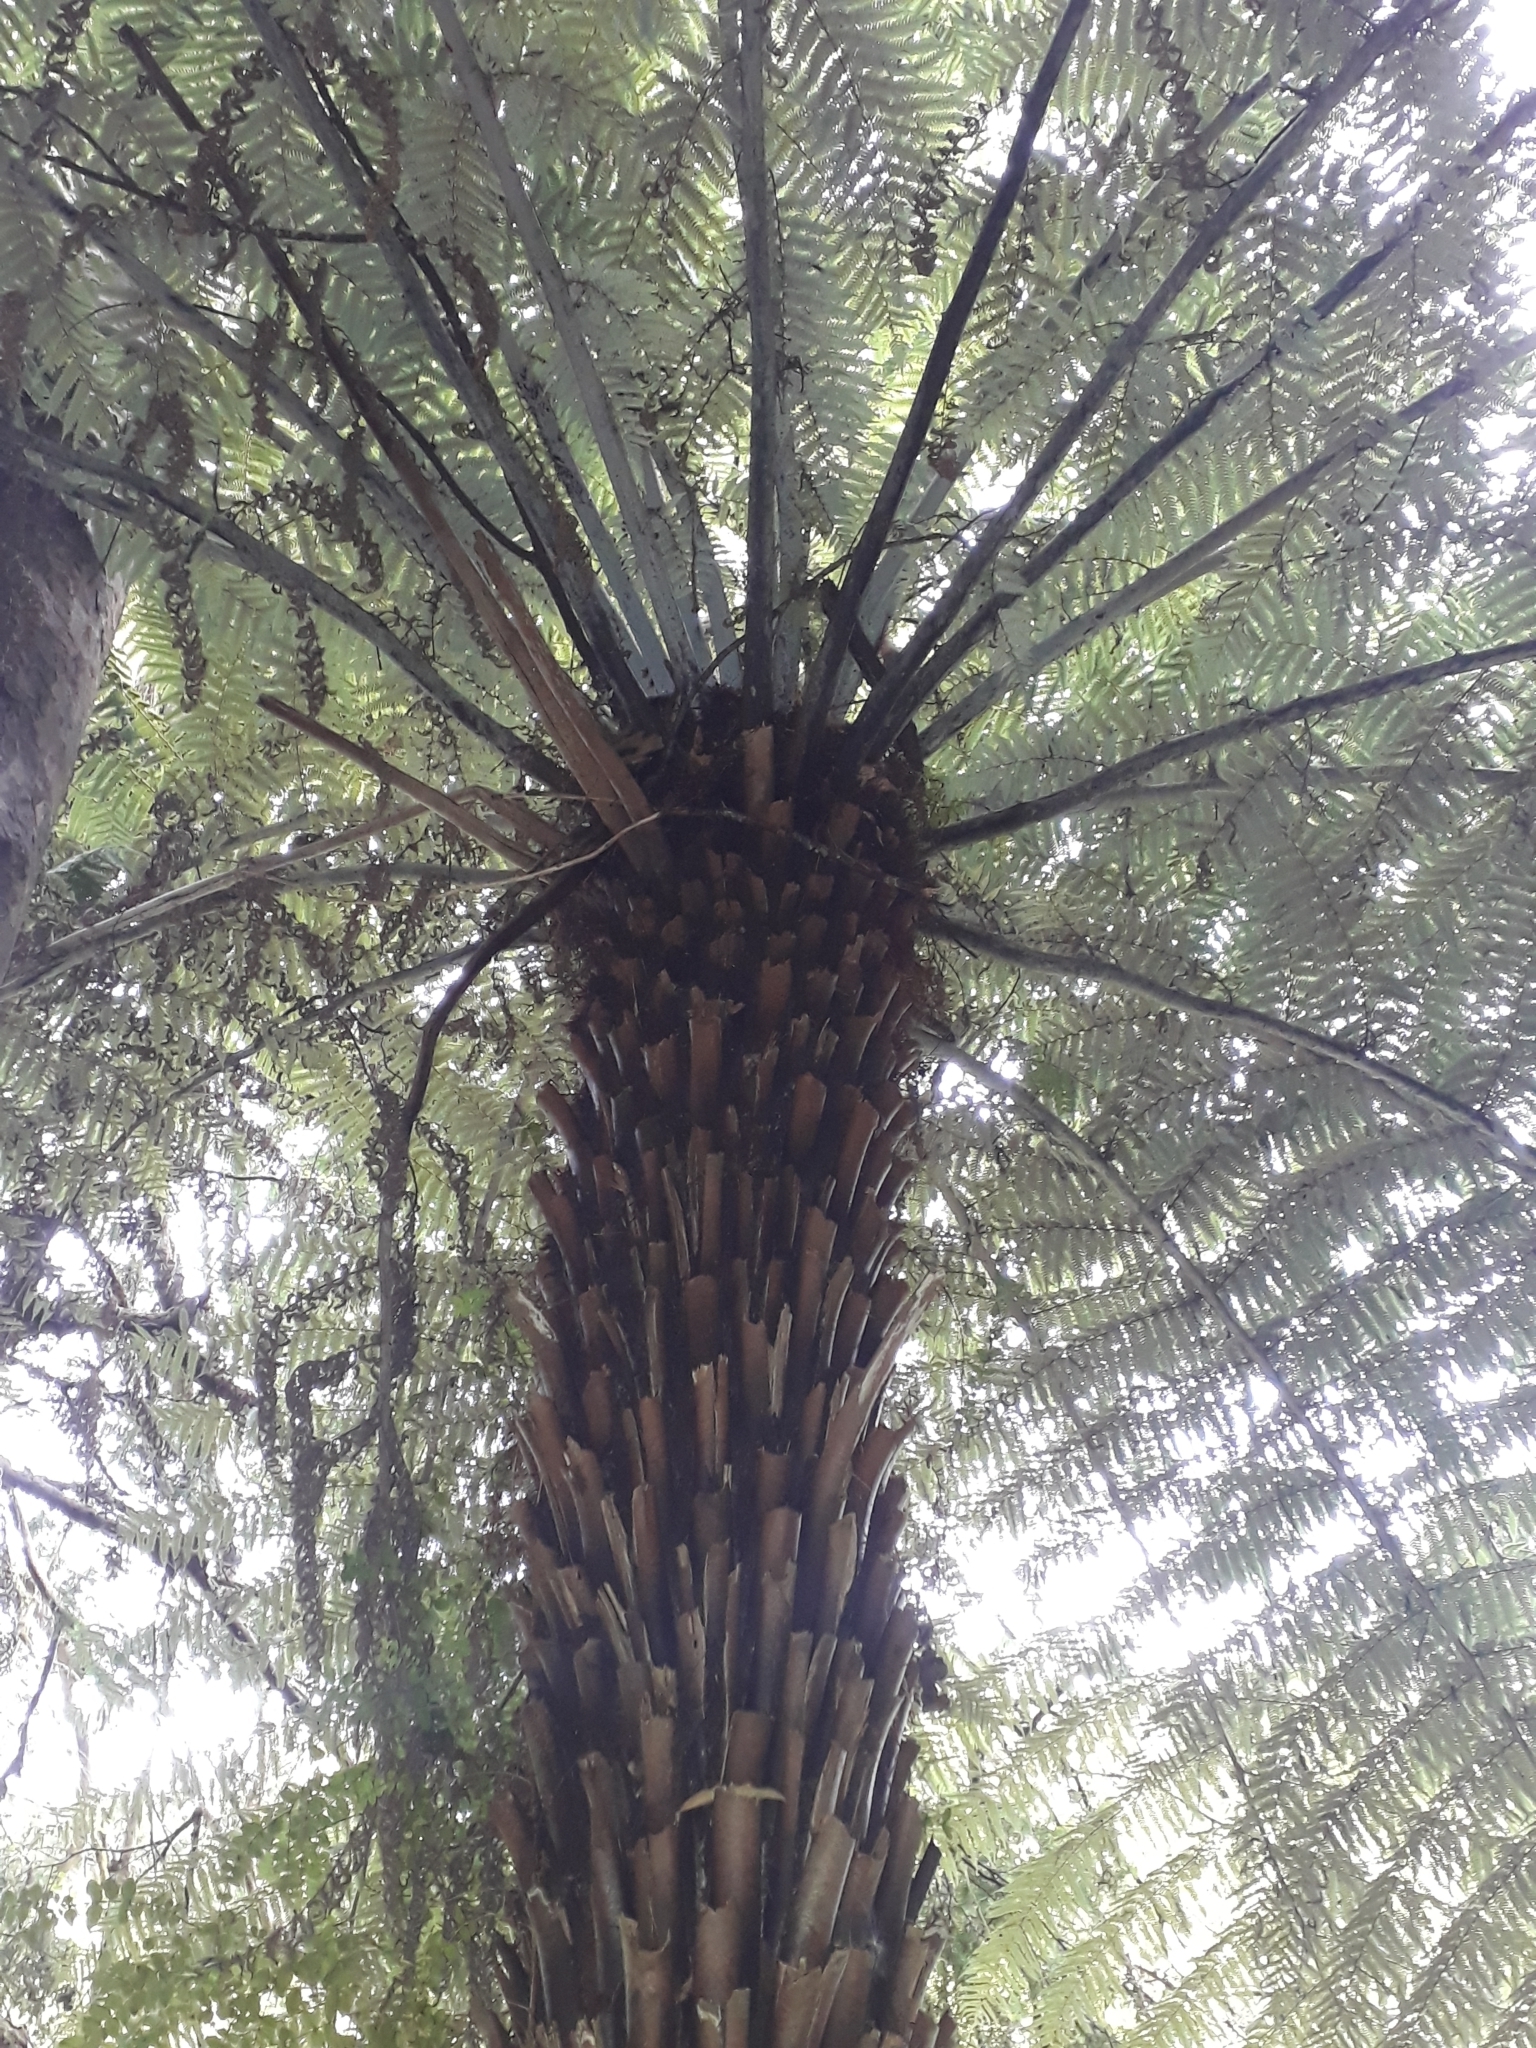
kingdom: Plantae
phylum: Tracheophyta
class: Polypodiopsida
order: Cyatheales
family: Cyatheaceae
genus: Alsophila
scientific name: Alsophila dealbata
